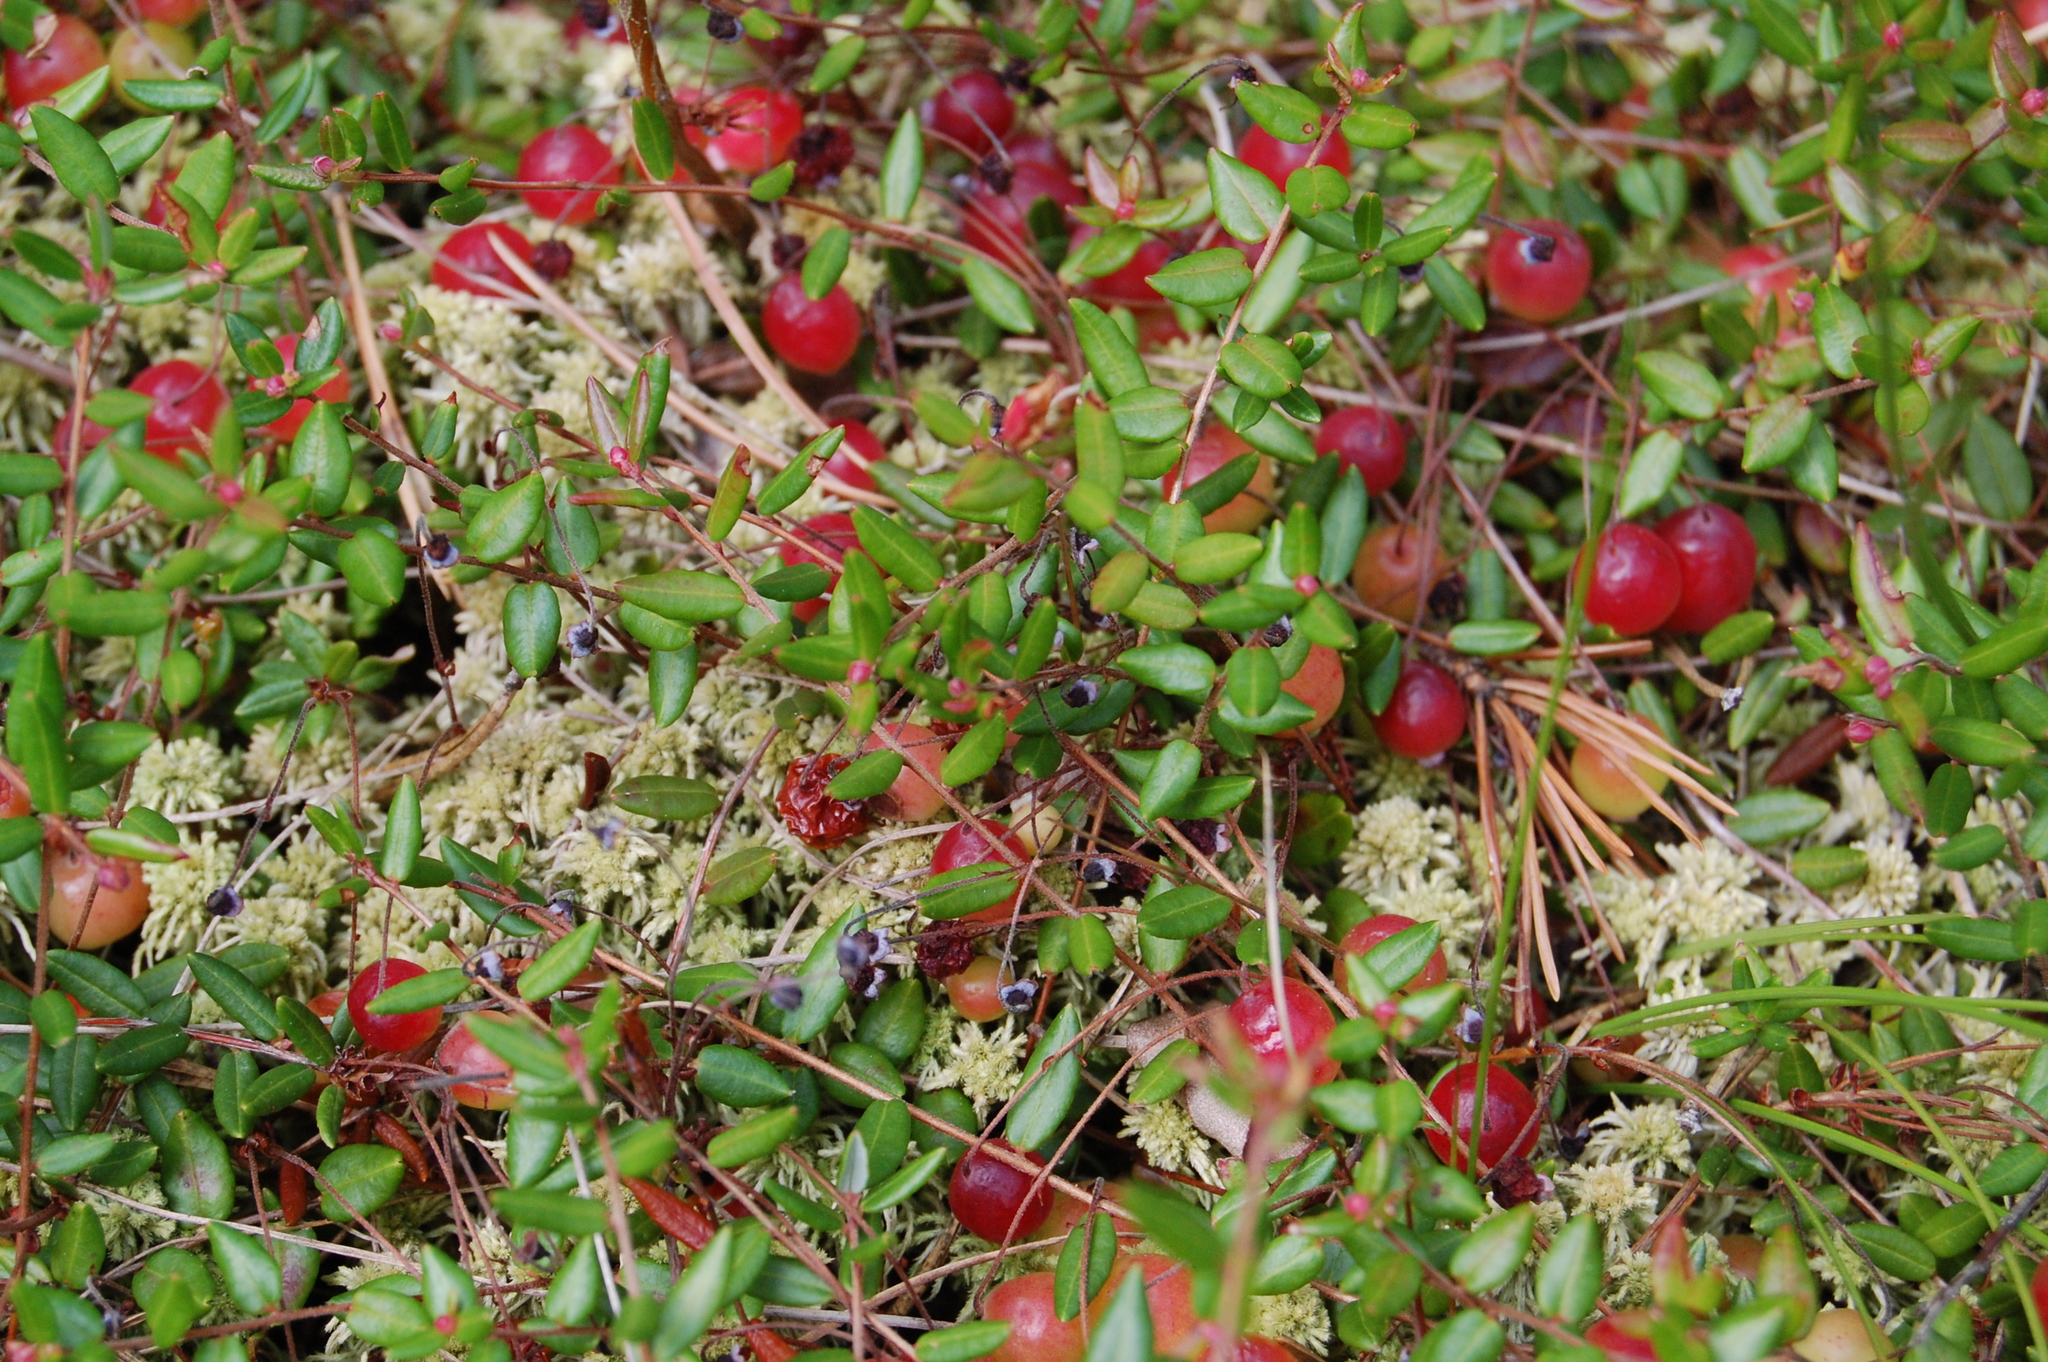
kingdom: Plantae
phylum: Tracheophyta
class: Magnoliopsida
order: Ericales
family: Ericaceae
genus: Vaccinium
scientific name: Vaccinium oxycoccos
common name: Cranberry
